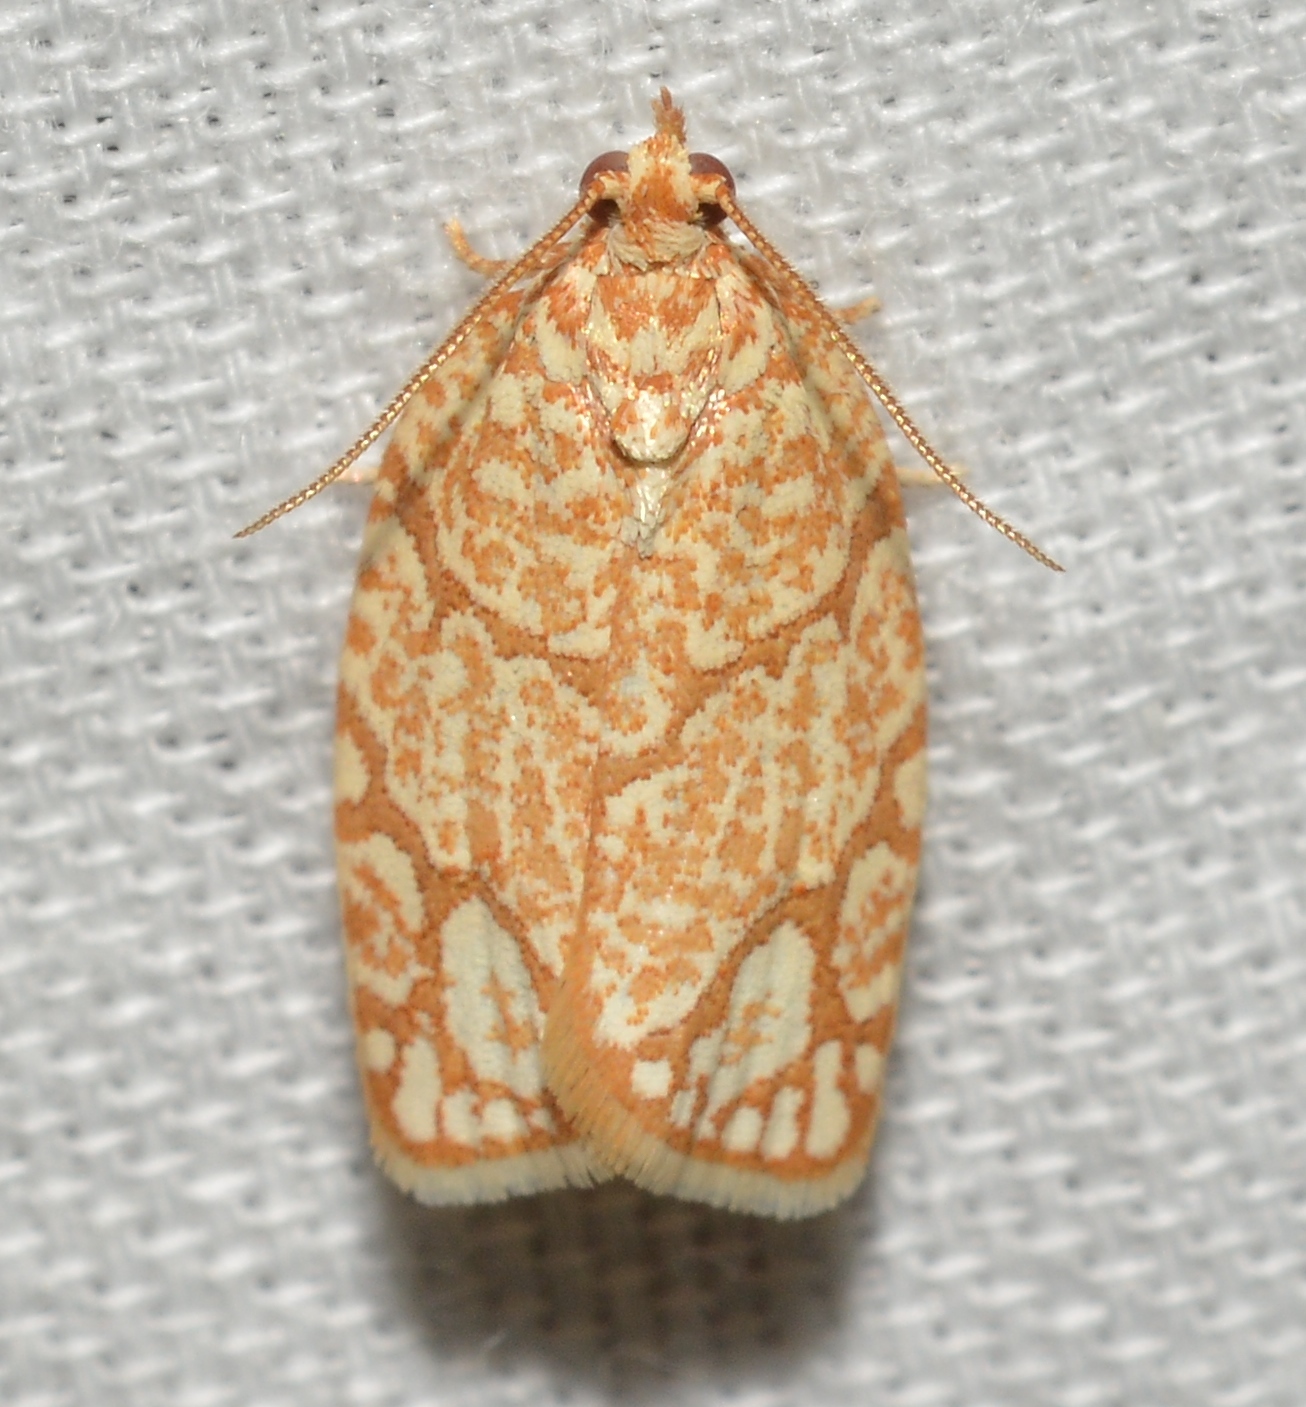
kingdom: Animalia
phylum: Arthropoda
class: Insecta
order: Lepidoptera
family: Tortricidae
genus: Argyrotaenia
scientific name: Argyrotaenia quercifoliana
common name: Yellow-winged oak leafroller moth
